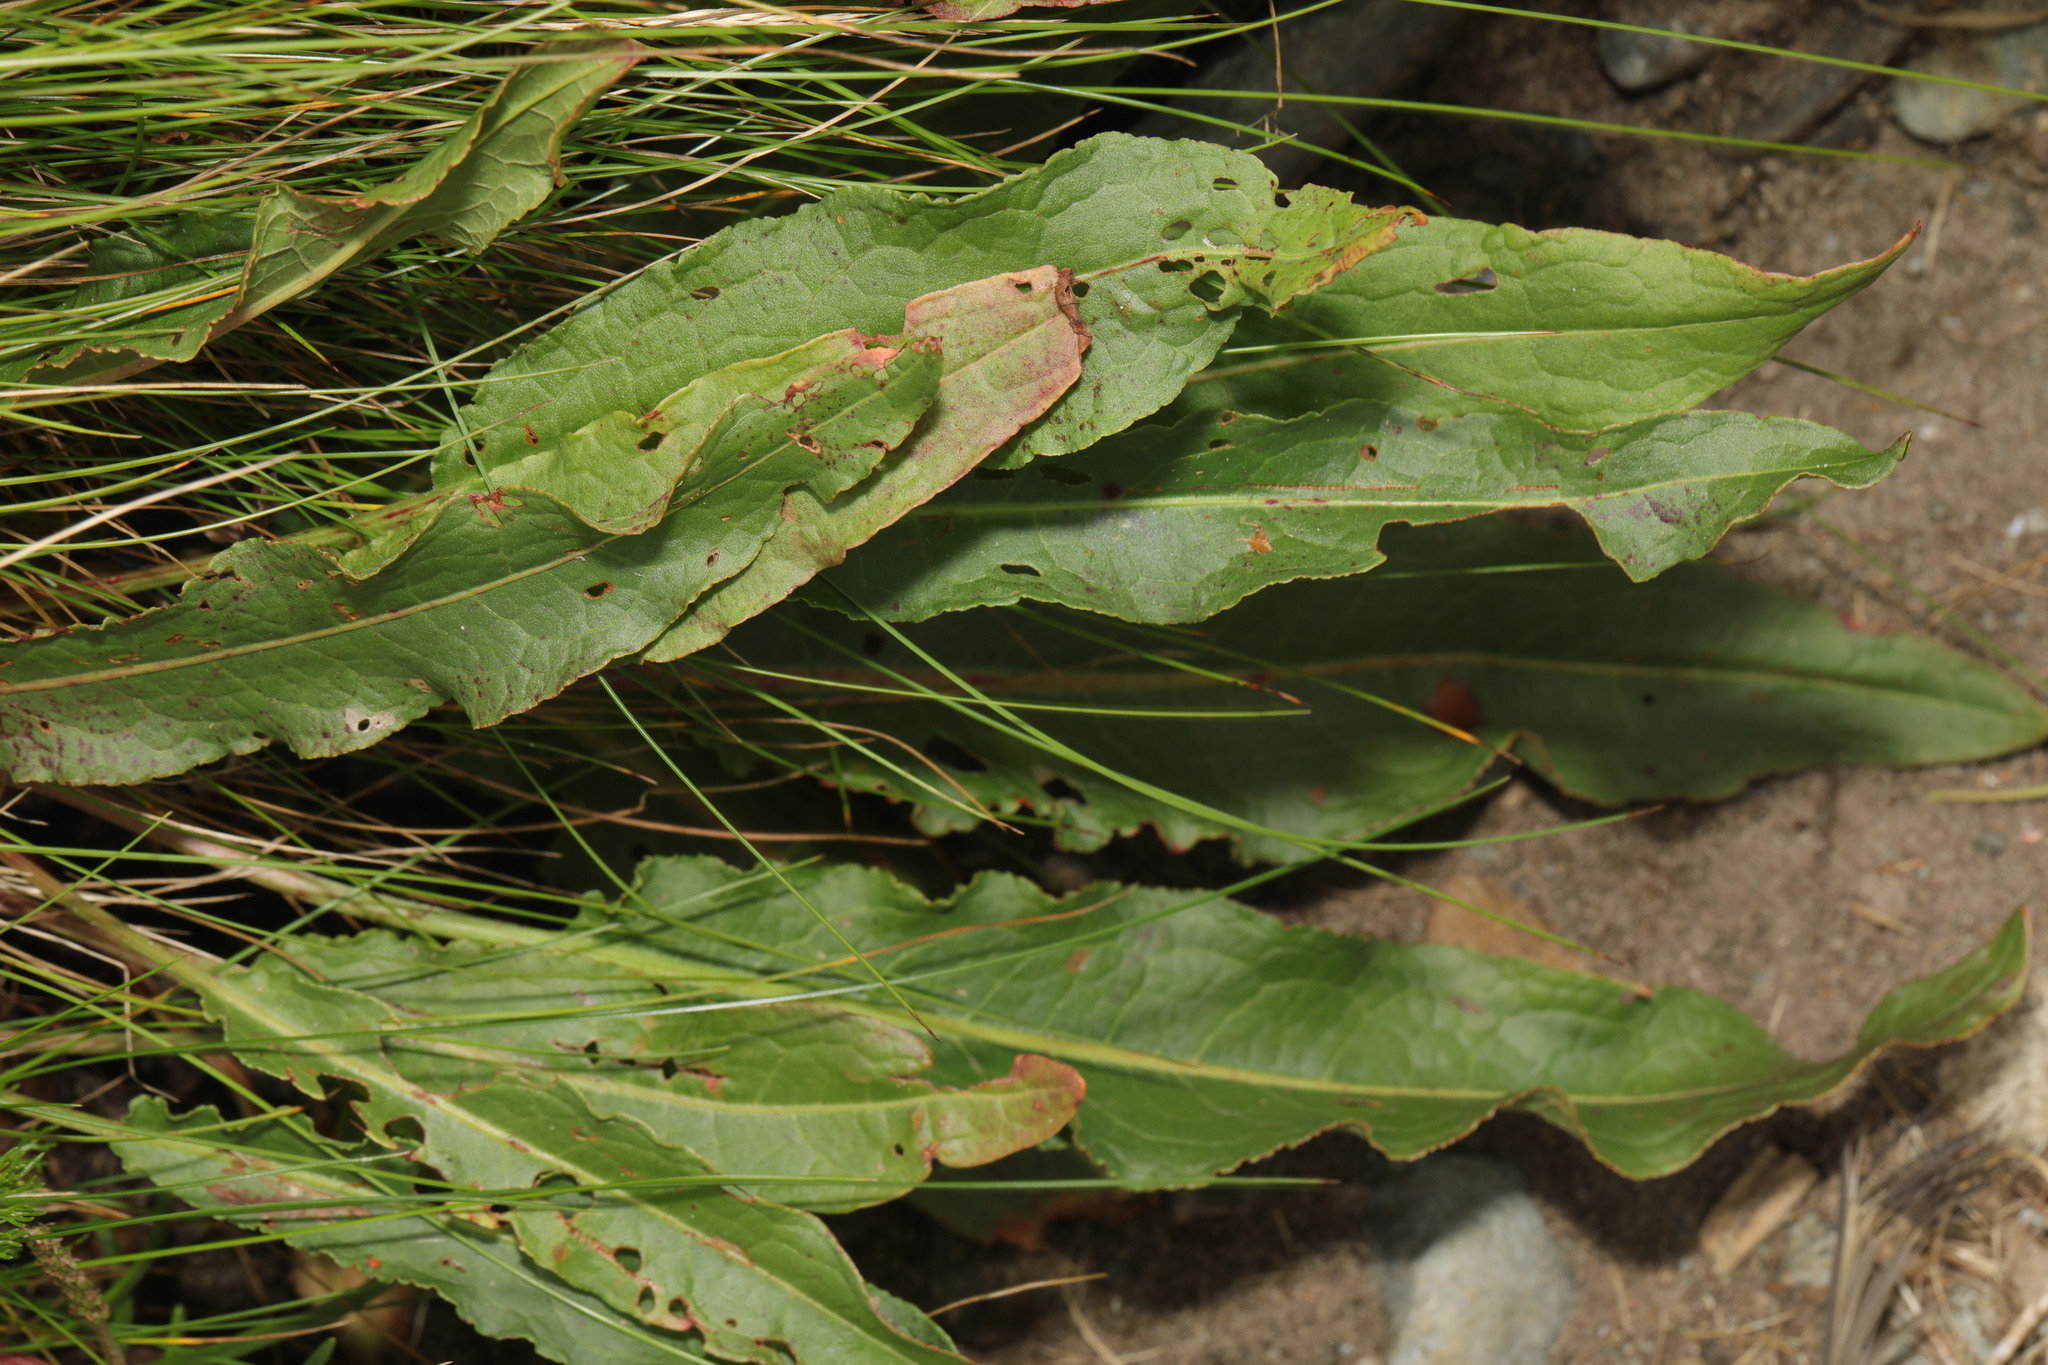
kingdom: Plantae
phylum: Tracheophyta
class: Magnoliopsida
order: Caryophyllales
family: Polygonaceae
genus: Rumex
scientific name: Rumex crispus
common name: Curled dock
